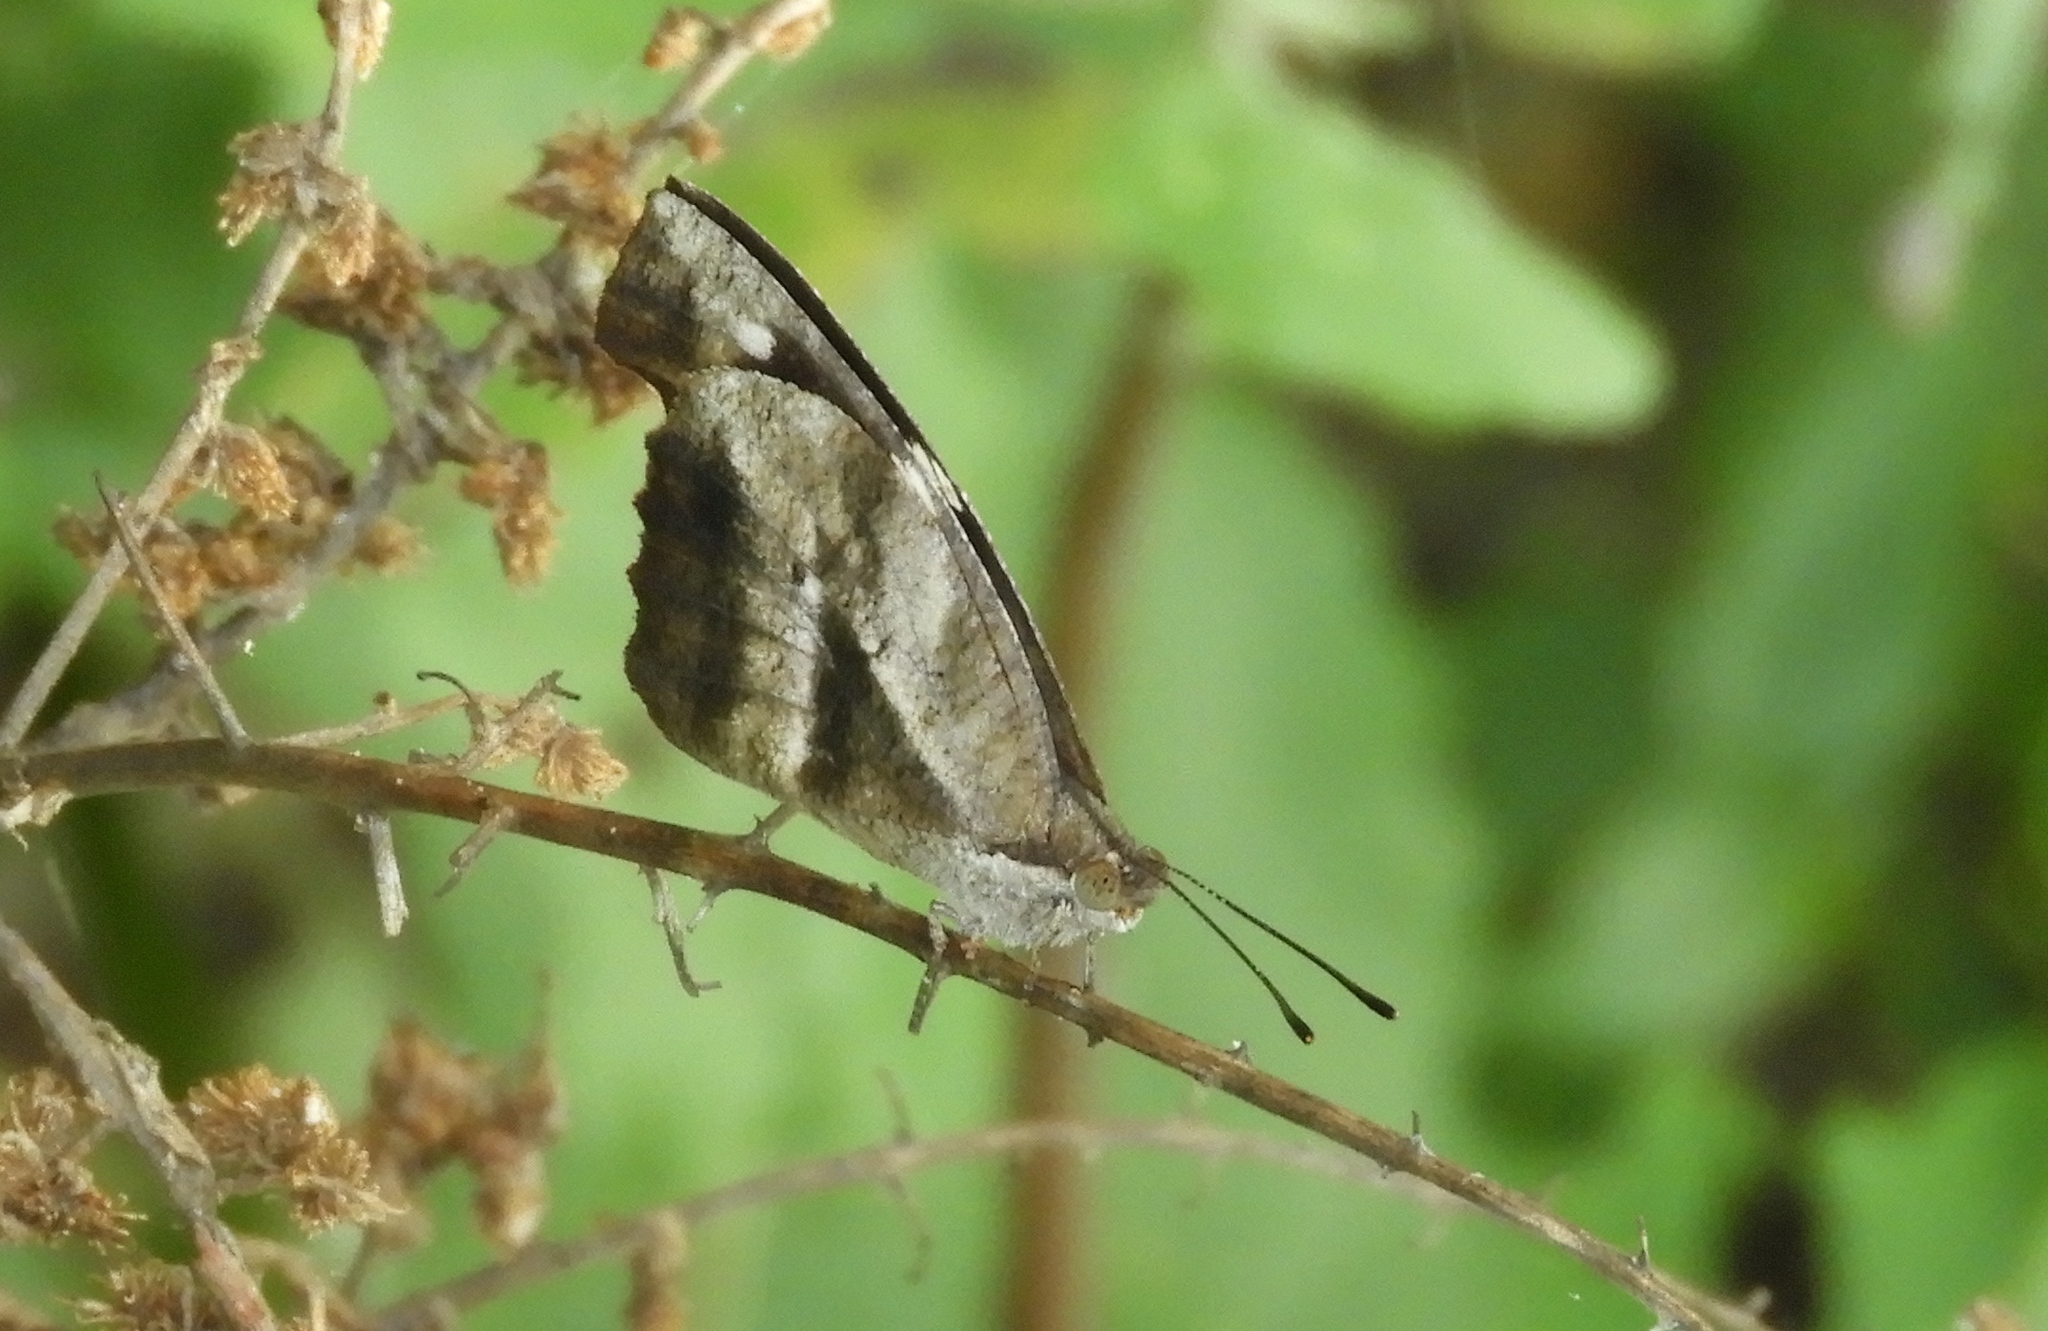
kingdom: Animalia
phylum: Arthropoda
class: Insecta
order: Lepidoptera
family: Nymphalidae
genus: Libytheana
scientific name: Libytheana carinenta
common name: American snout
